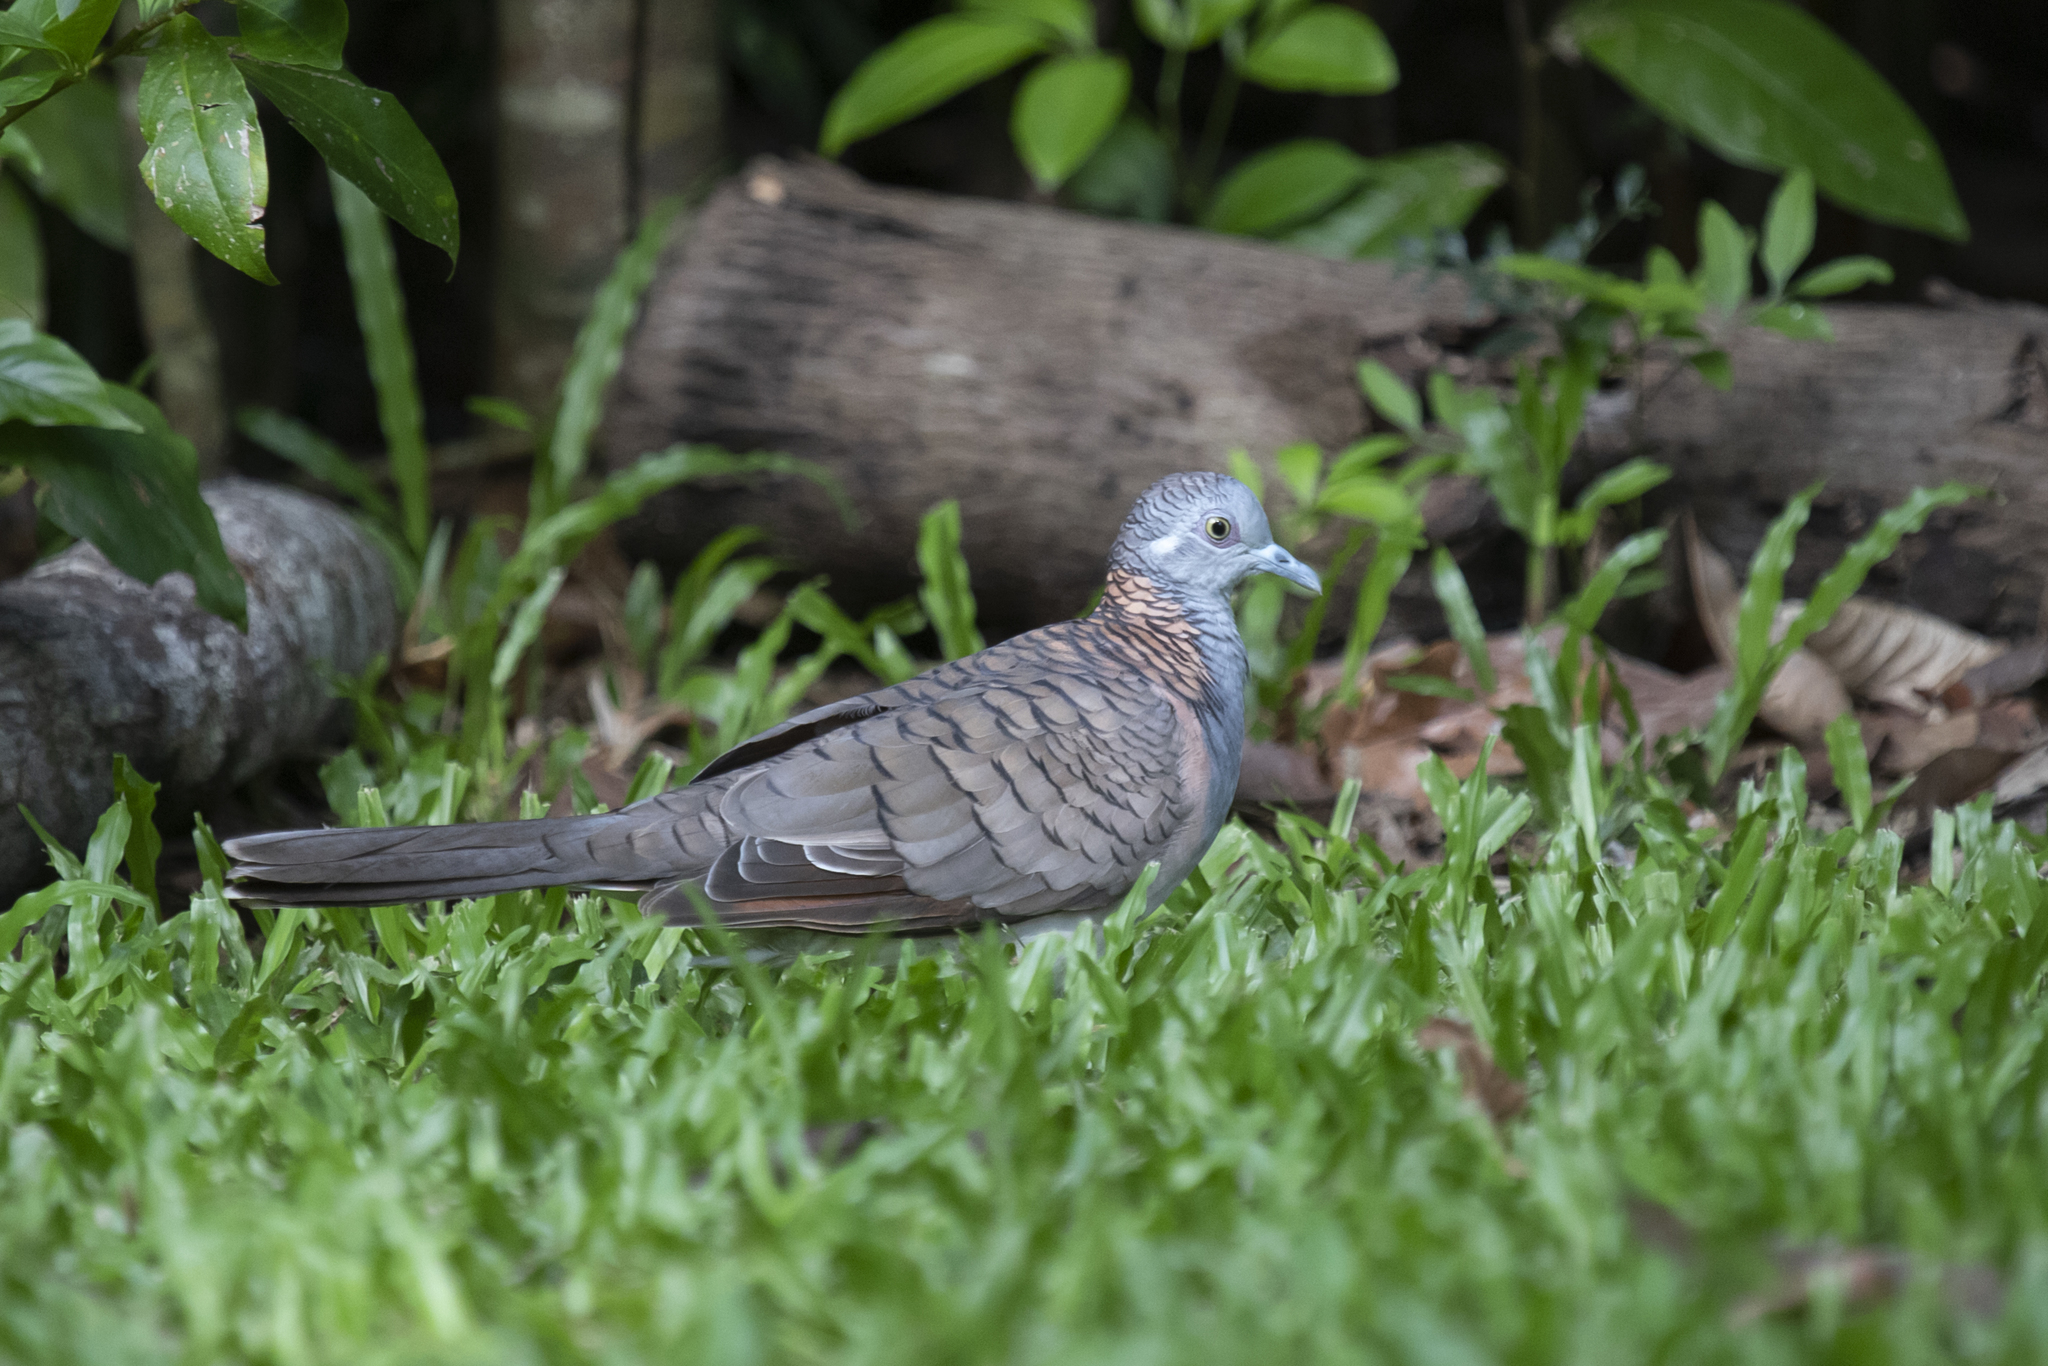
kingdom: Animalia
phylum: Chordata
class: Aves
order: Columbiformes
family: Columbidae
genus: Geopelia
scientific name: Geopelia humeralis
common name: Bar-shouldered dove
